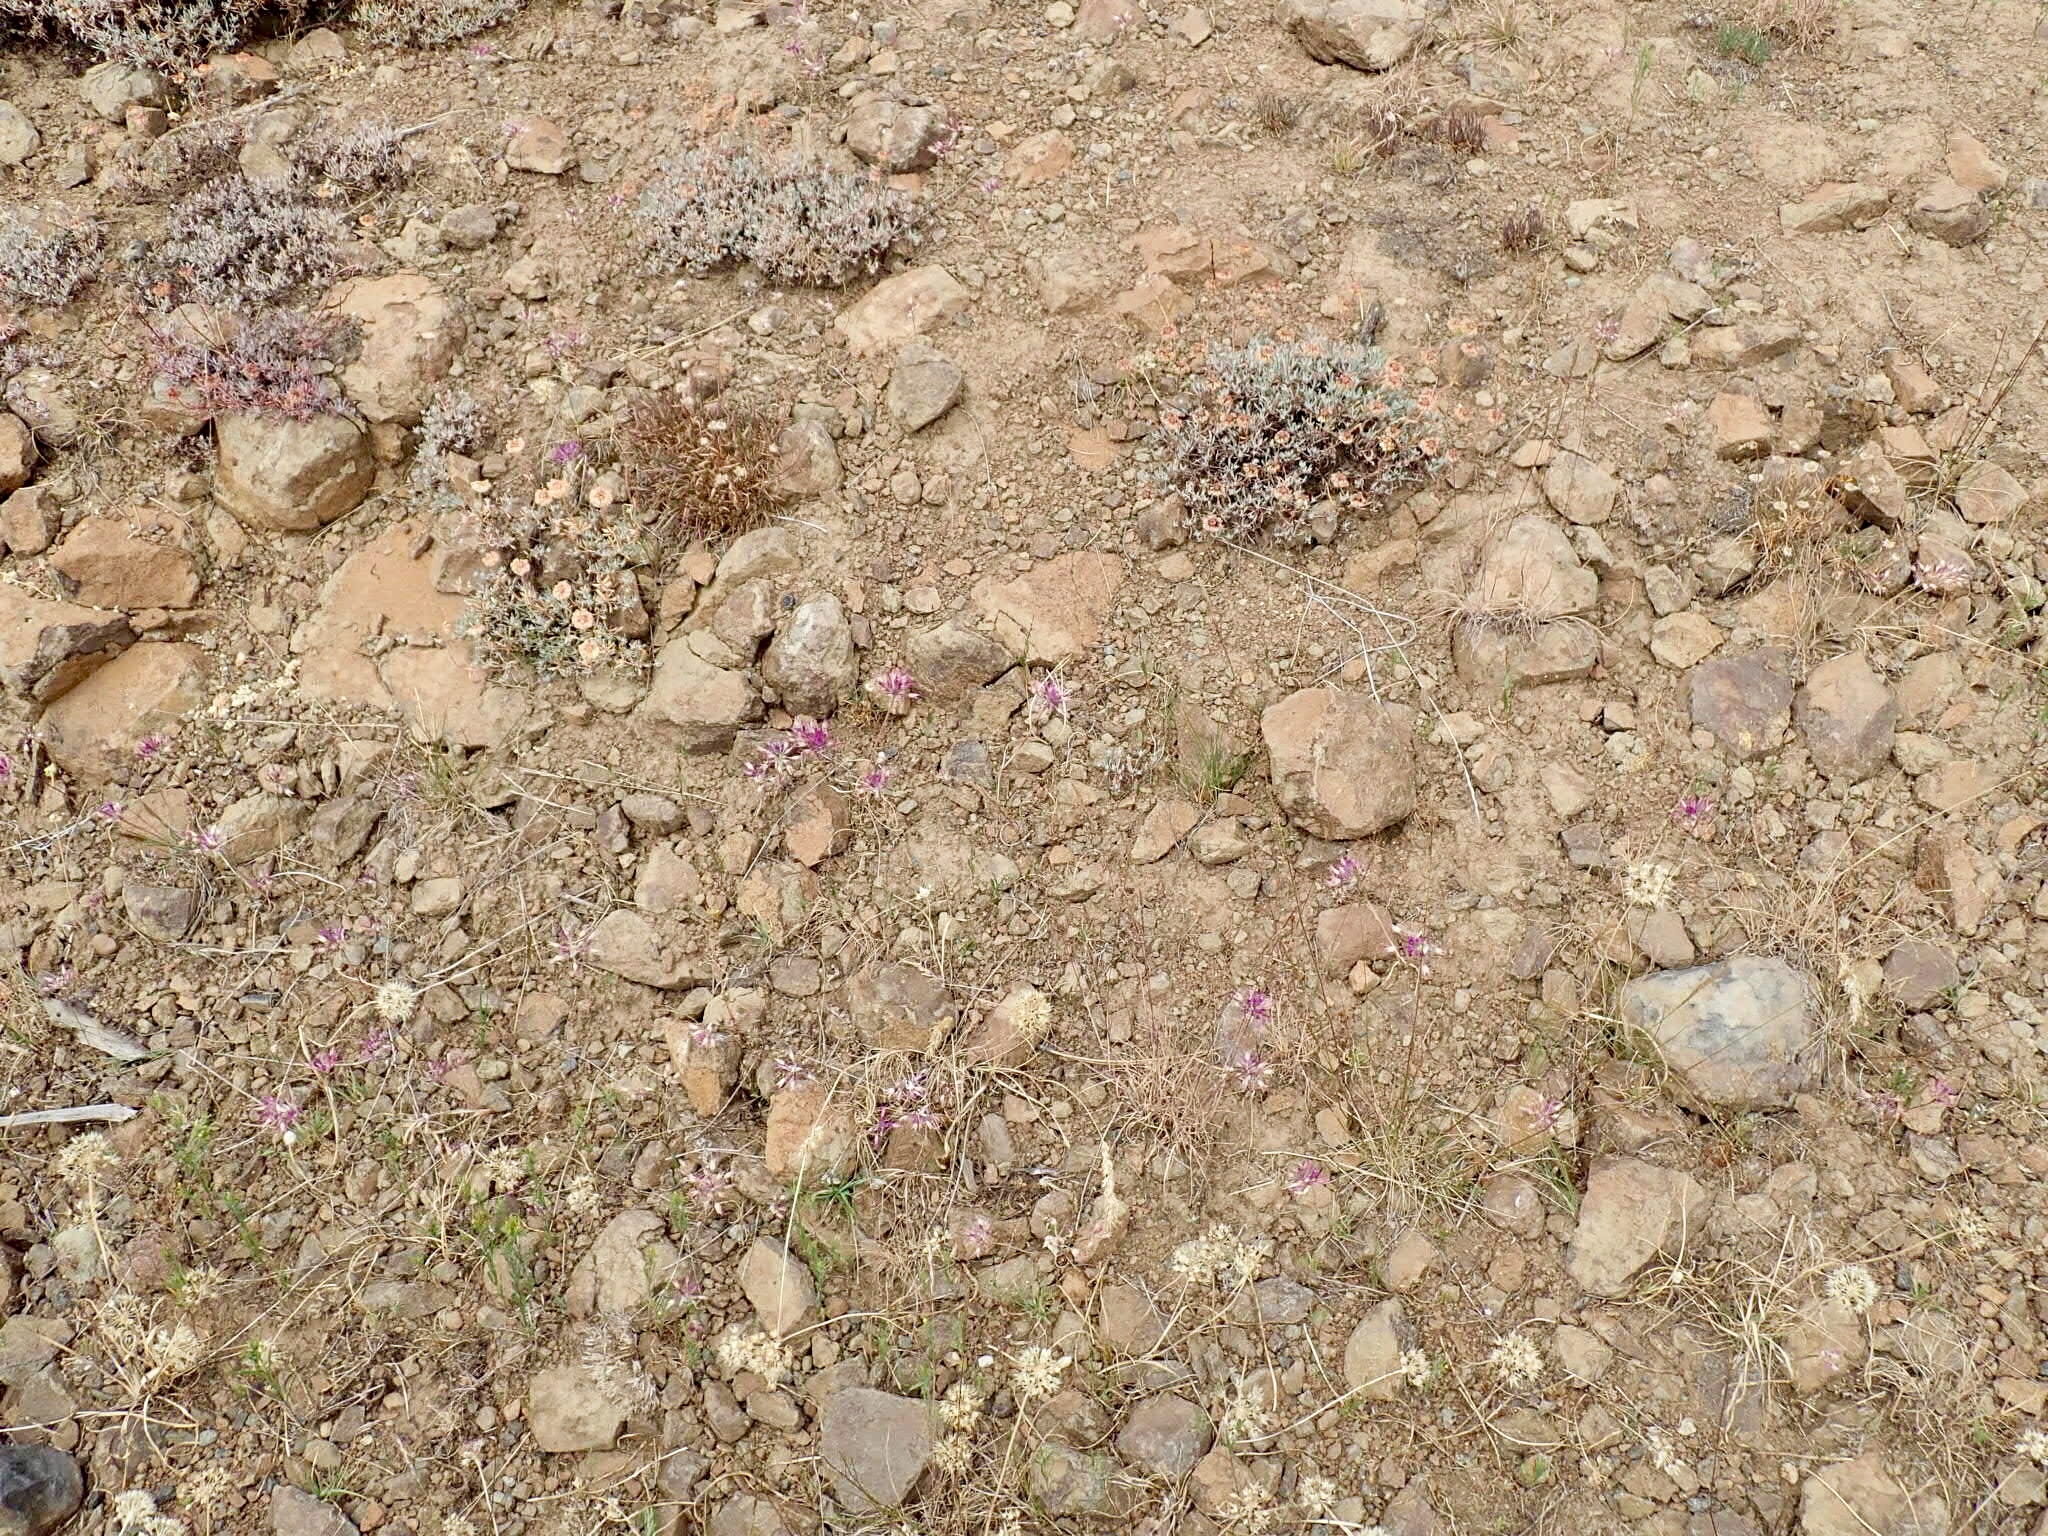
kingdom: Plantae
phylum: Tracheophyta
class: Liliopsida
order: Asparagales
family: Amaryllidaceae
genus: Allium
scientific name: Allium acuminatum
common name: Hooker's onion
